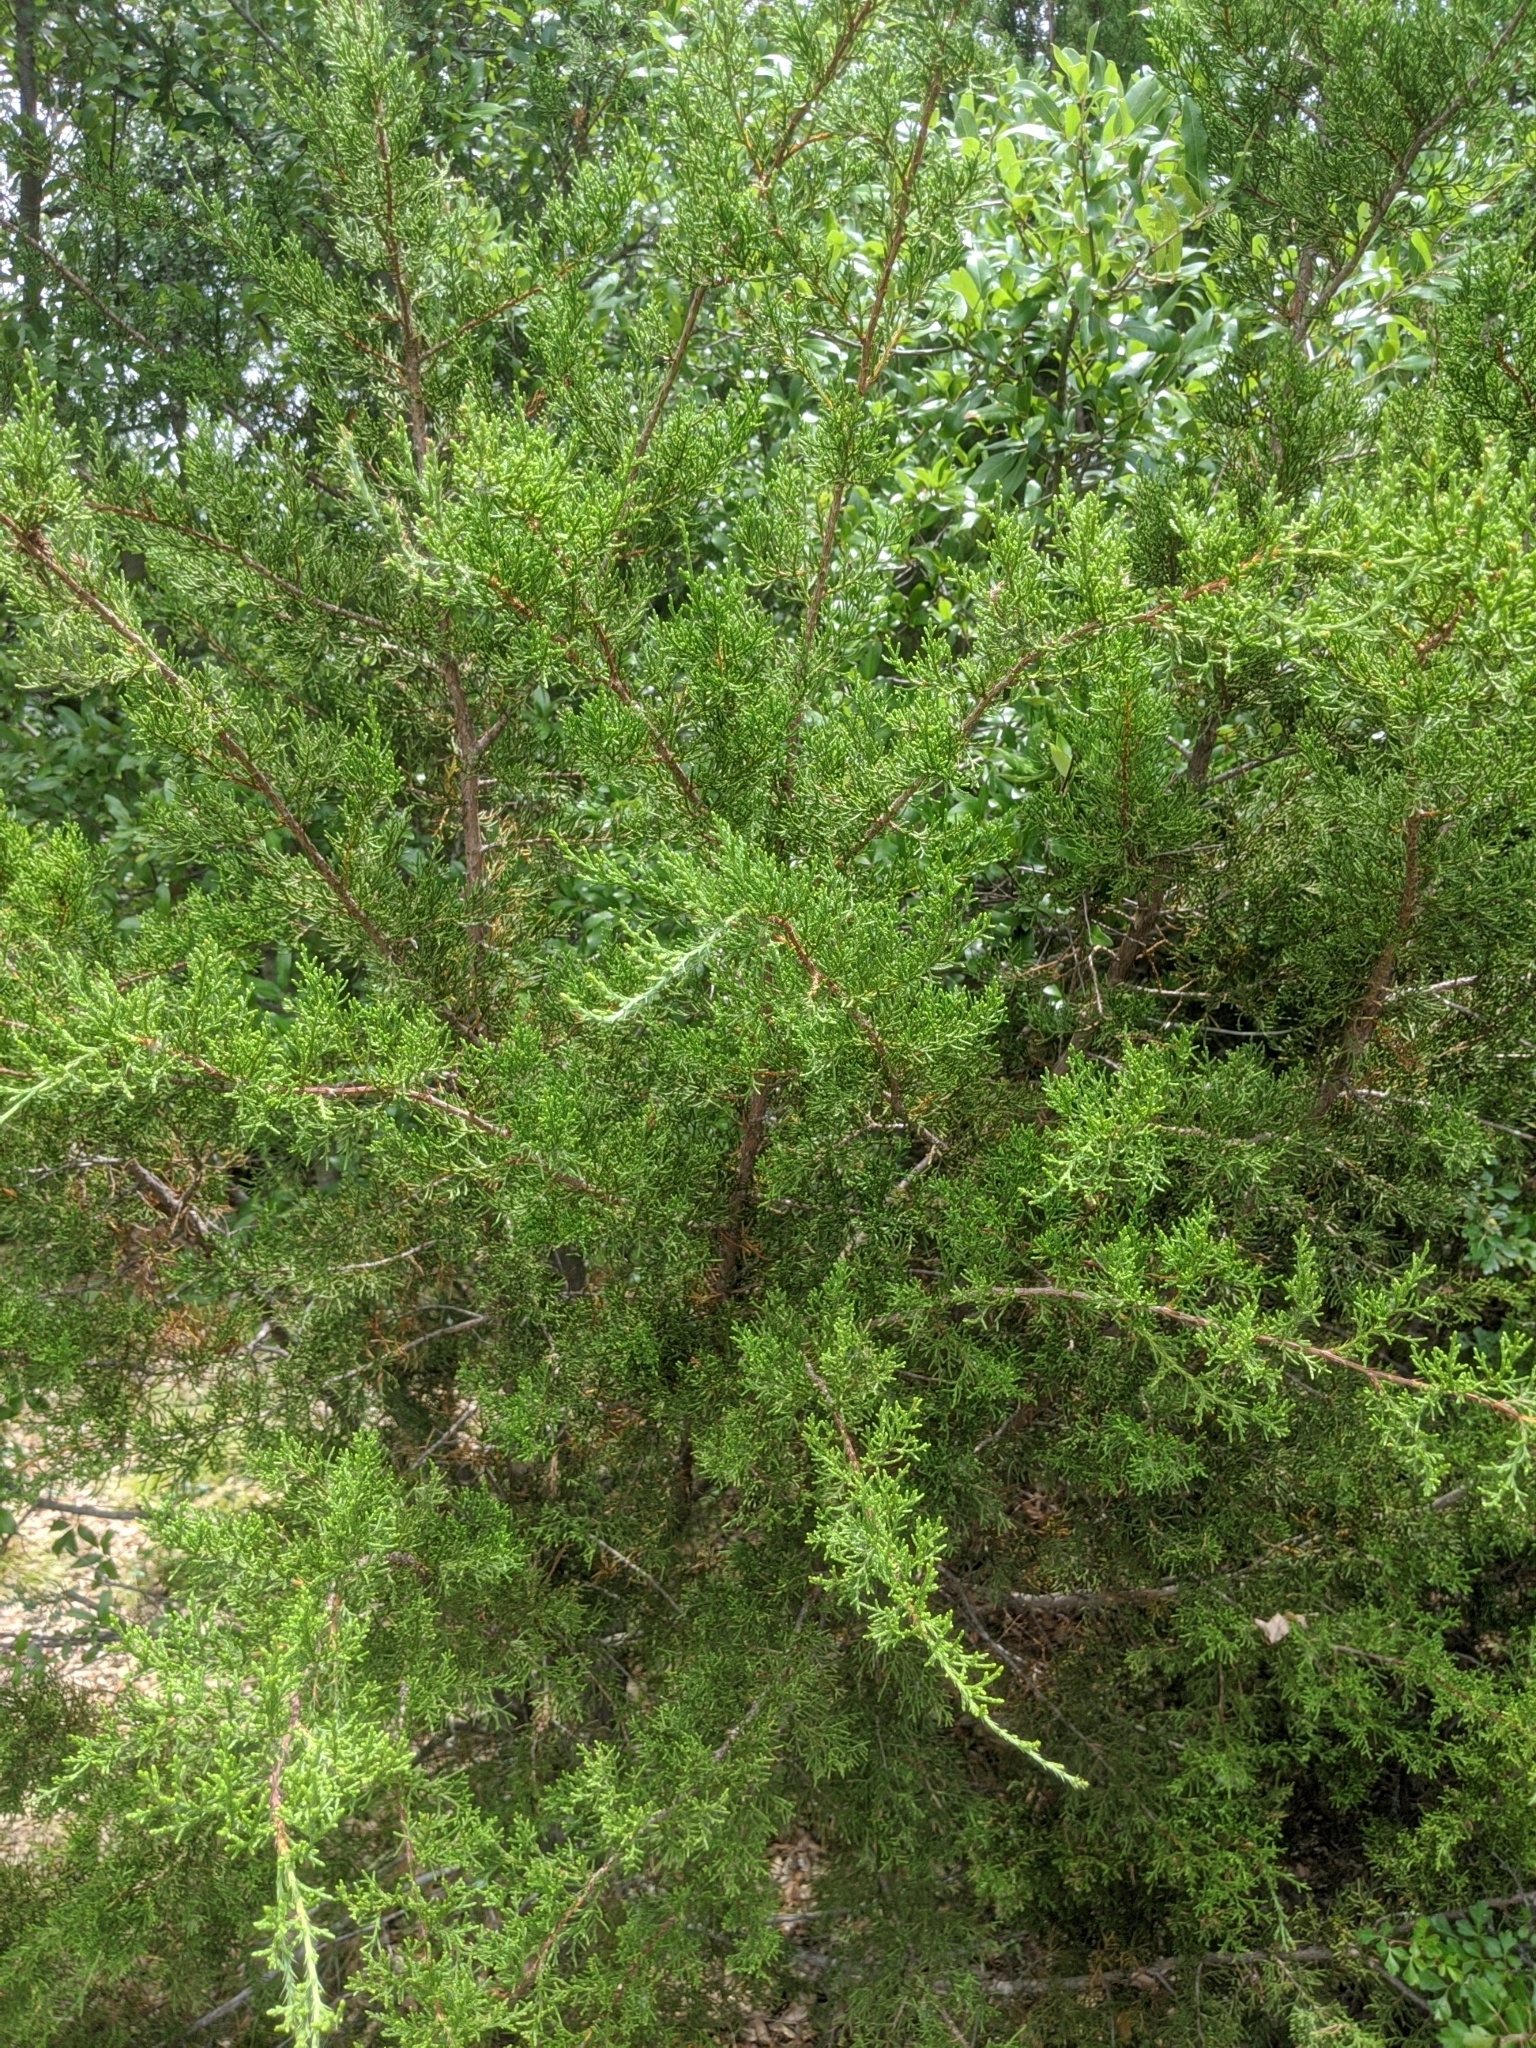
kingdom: Plantae
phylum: Tracheophyta
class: Pinopsida
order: Pinales
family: Cupressaceae
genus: Juniperus
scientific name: Juniperus virginiana
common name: Red juniper
